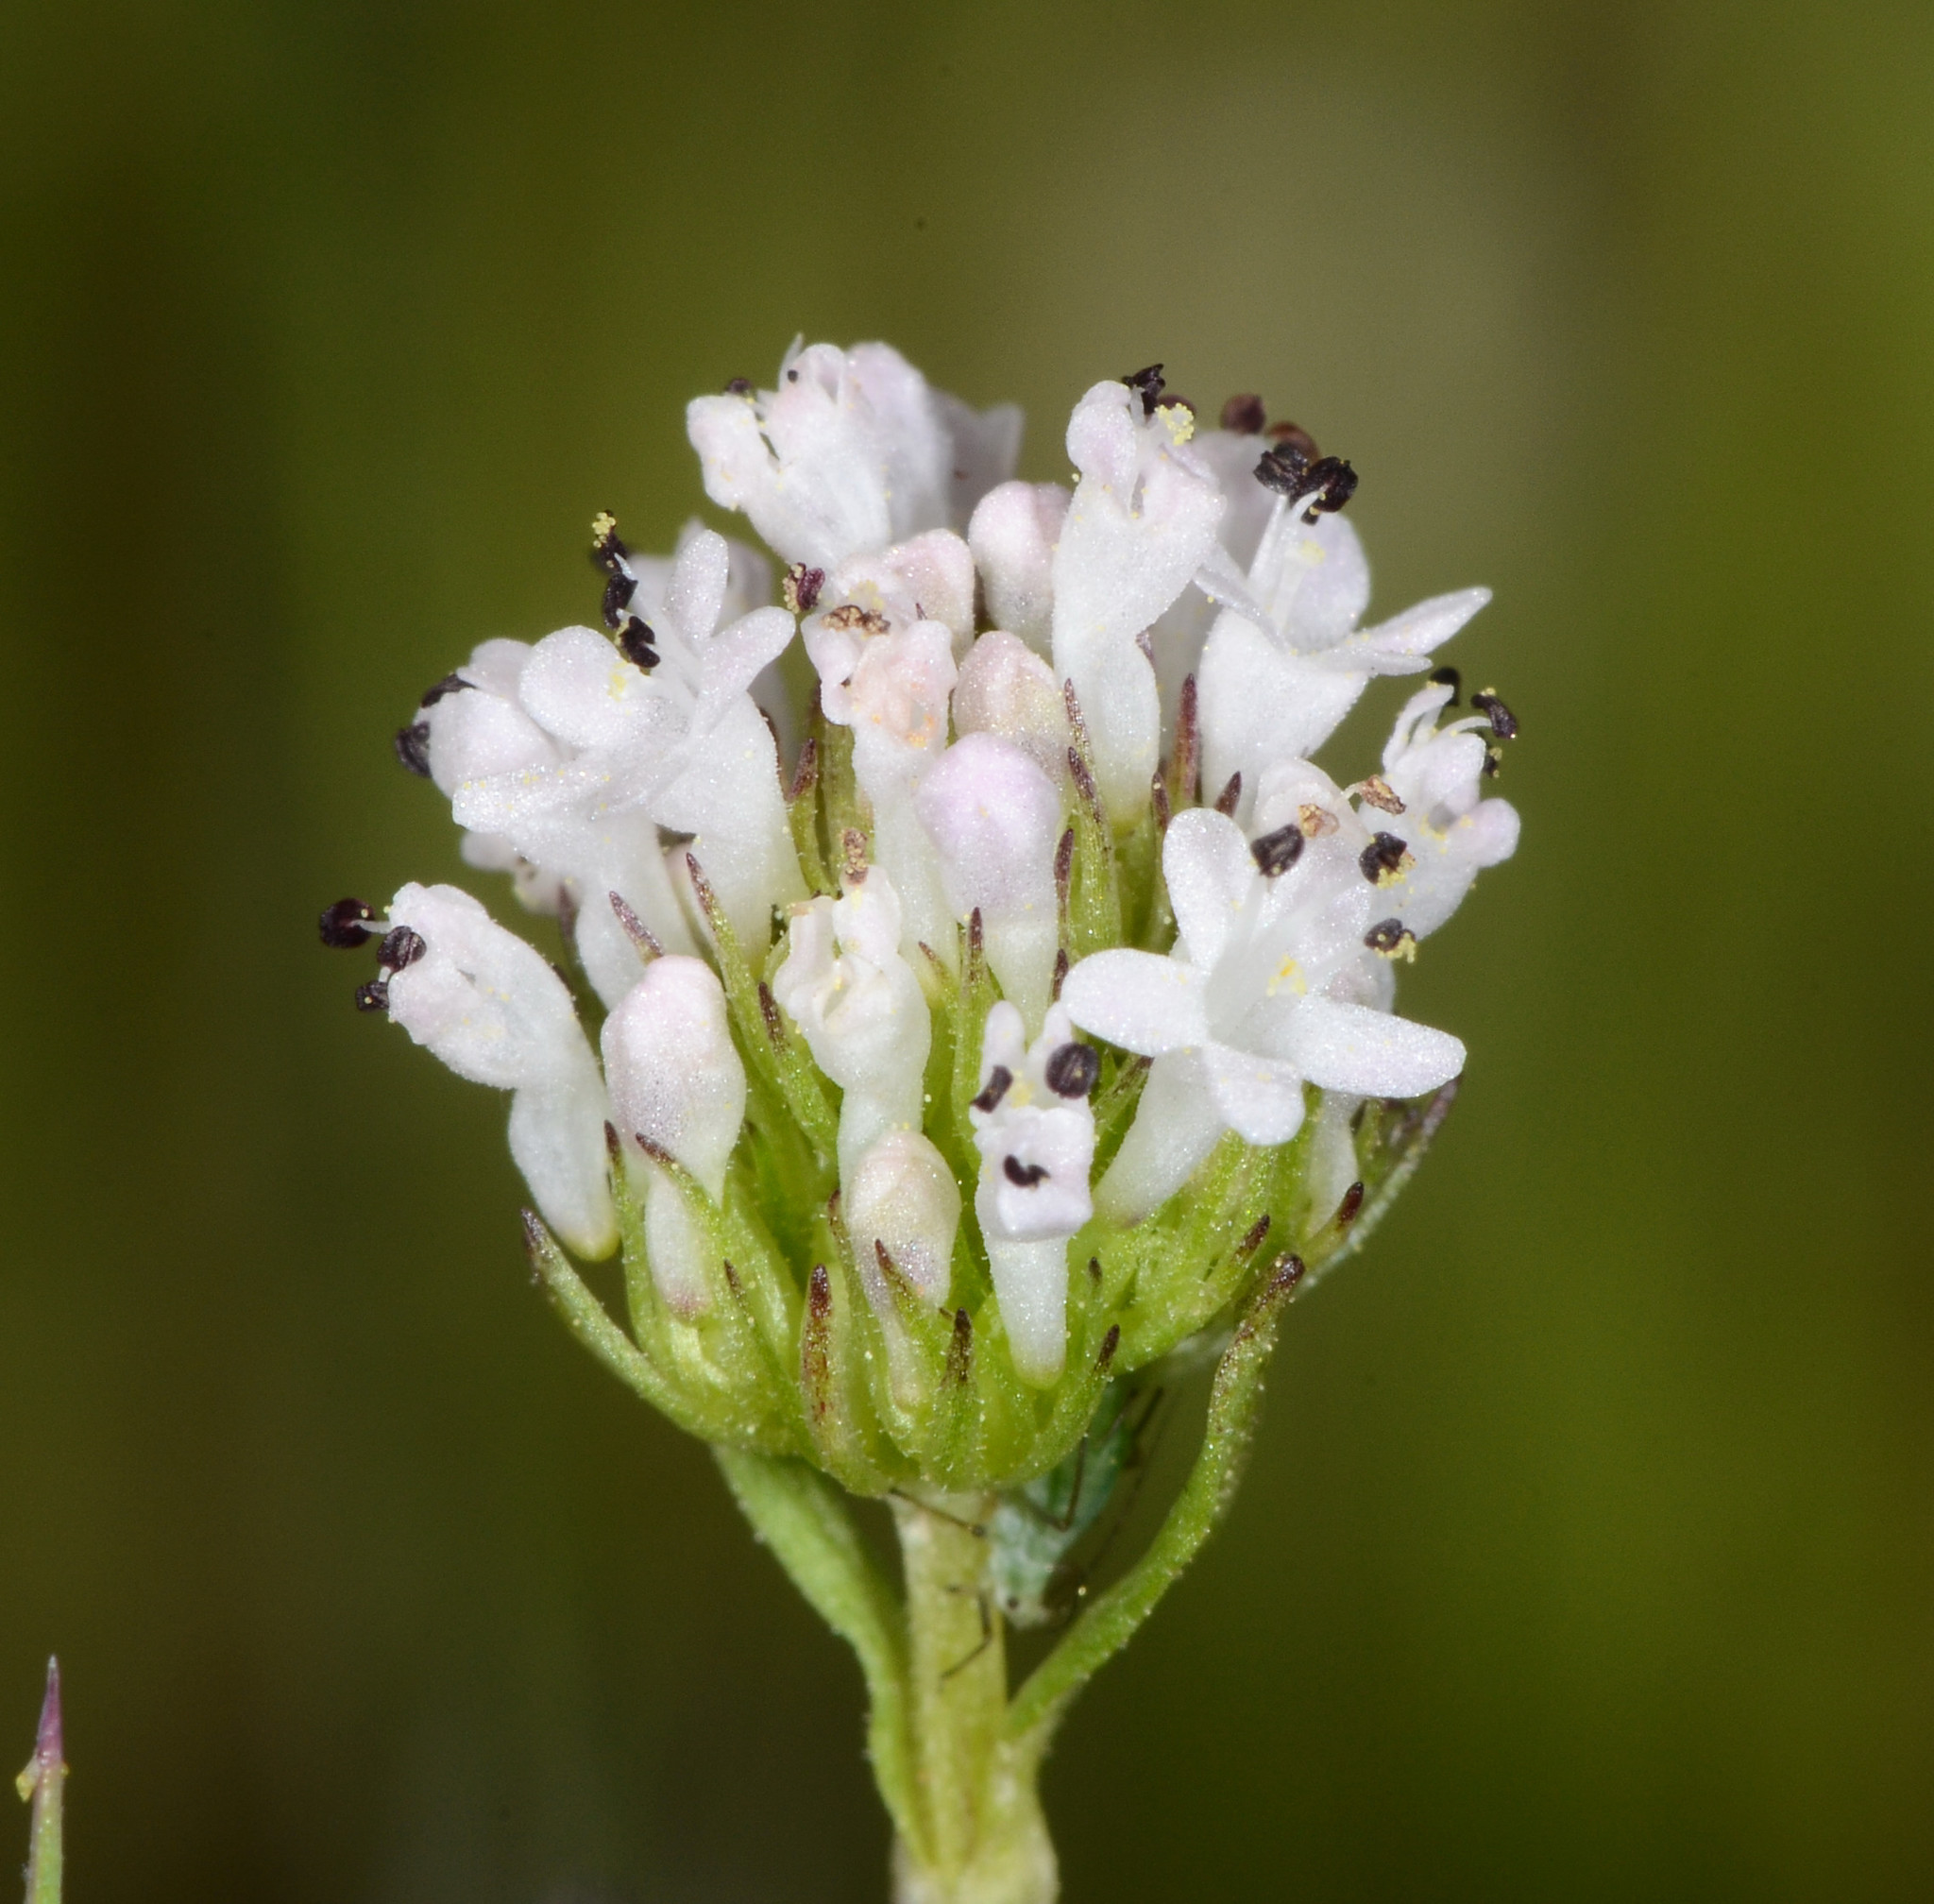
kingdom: Plantae
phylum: Tracheophyta
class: Magnoliopsida
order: Dipsacales
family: Caprifoliaceae
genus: Plectritis
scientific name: Plectritis macroptera
